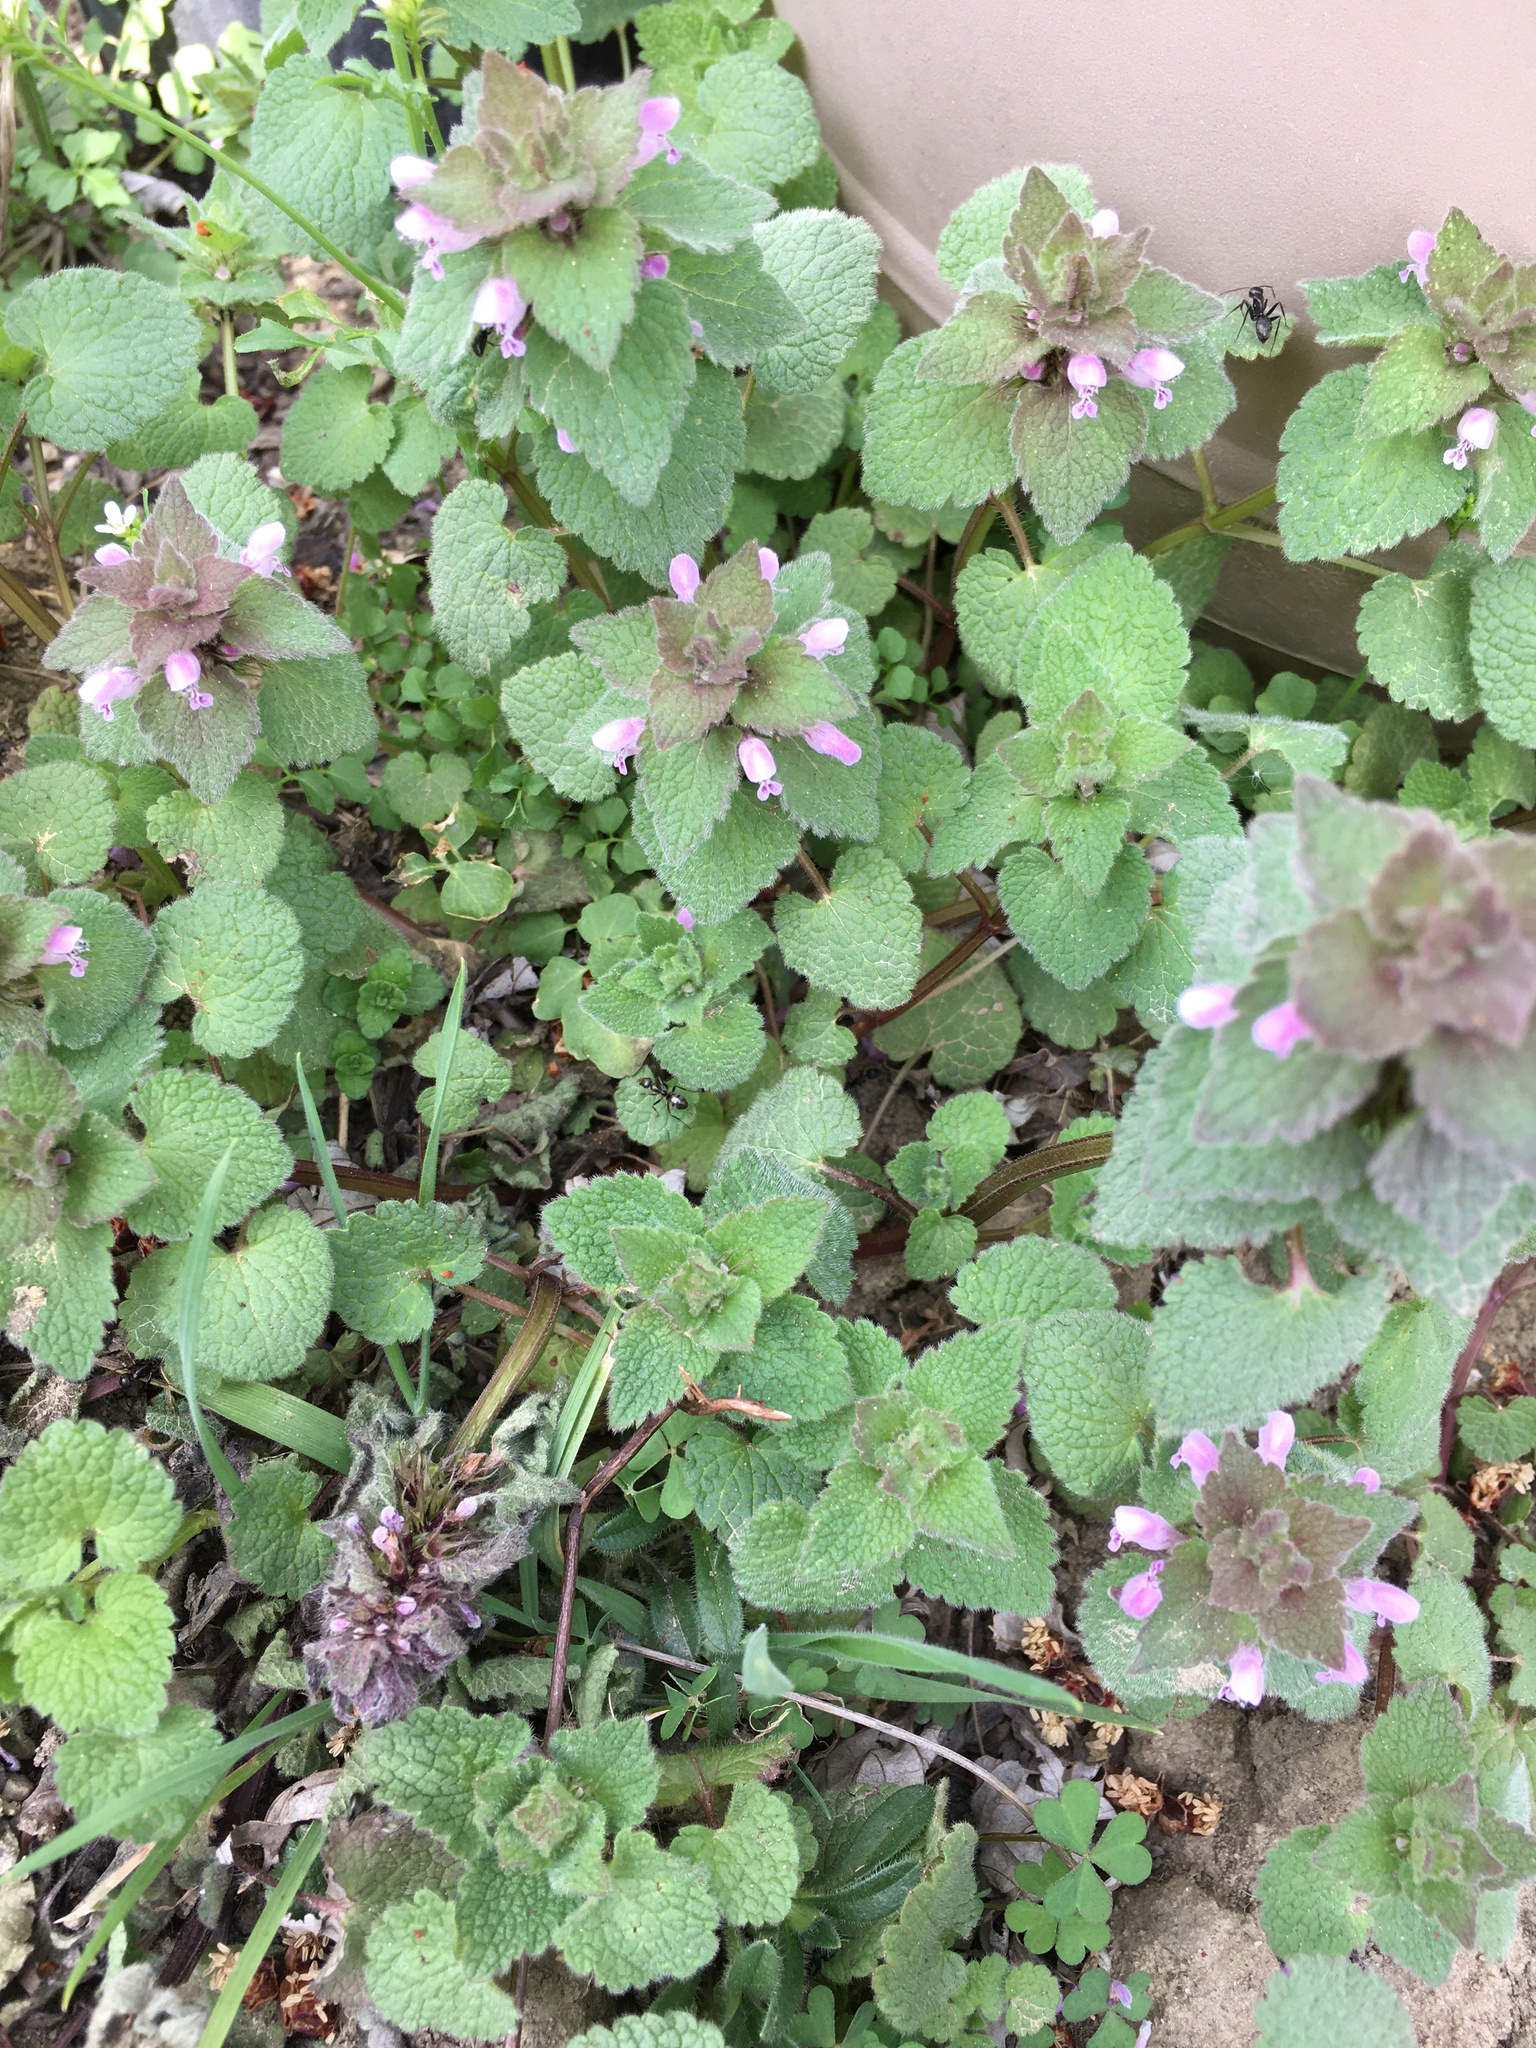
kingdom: Plantae
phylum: Tracheophyta
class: Magnoliopsida
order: Lamiales
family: Lamiaceae
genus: Lamium
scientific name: Lamium purpureum
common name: Red dead-nettle
